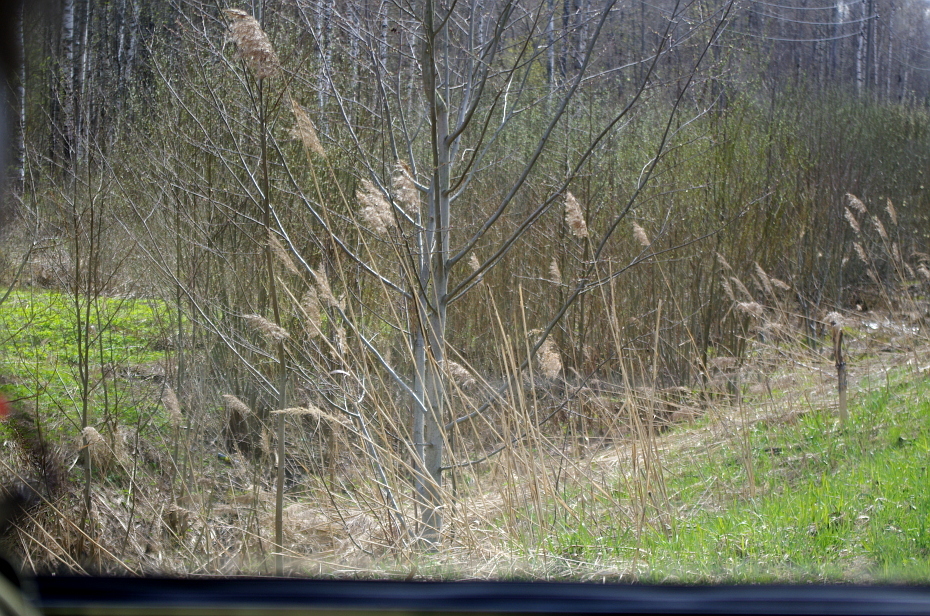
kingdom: Plantae
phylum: Tracheophyta
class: Liliopsida
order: Poales
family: Poaceae
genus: Phragmites
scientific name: Phragmites australis
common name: Common reed
